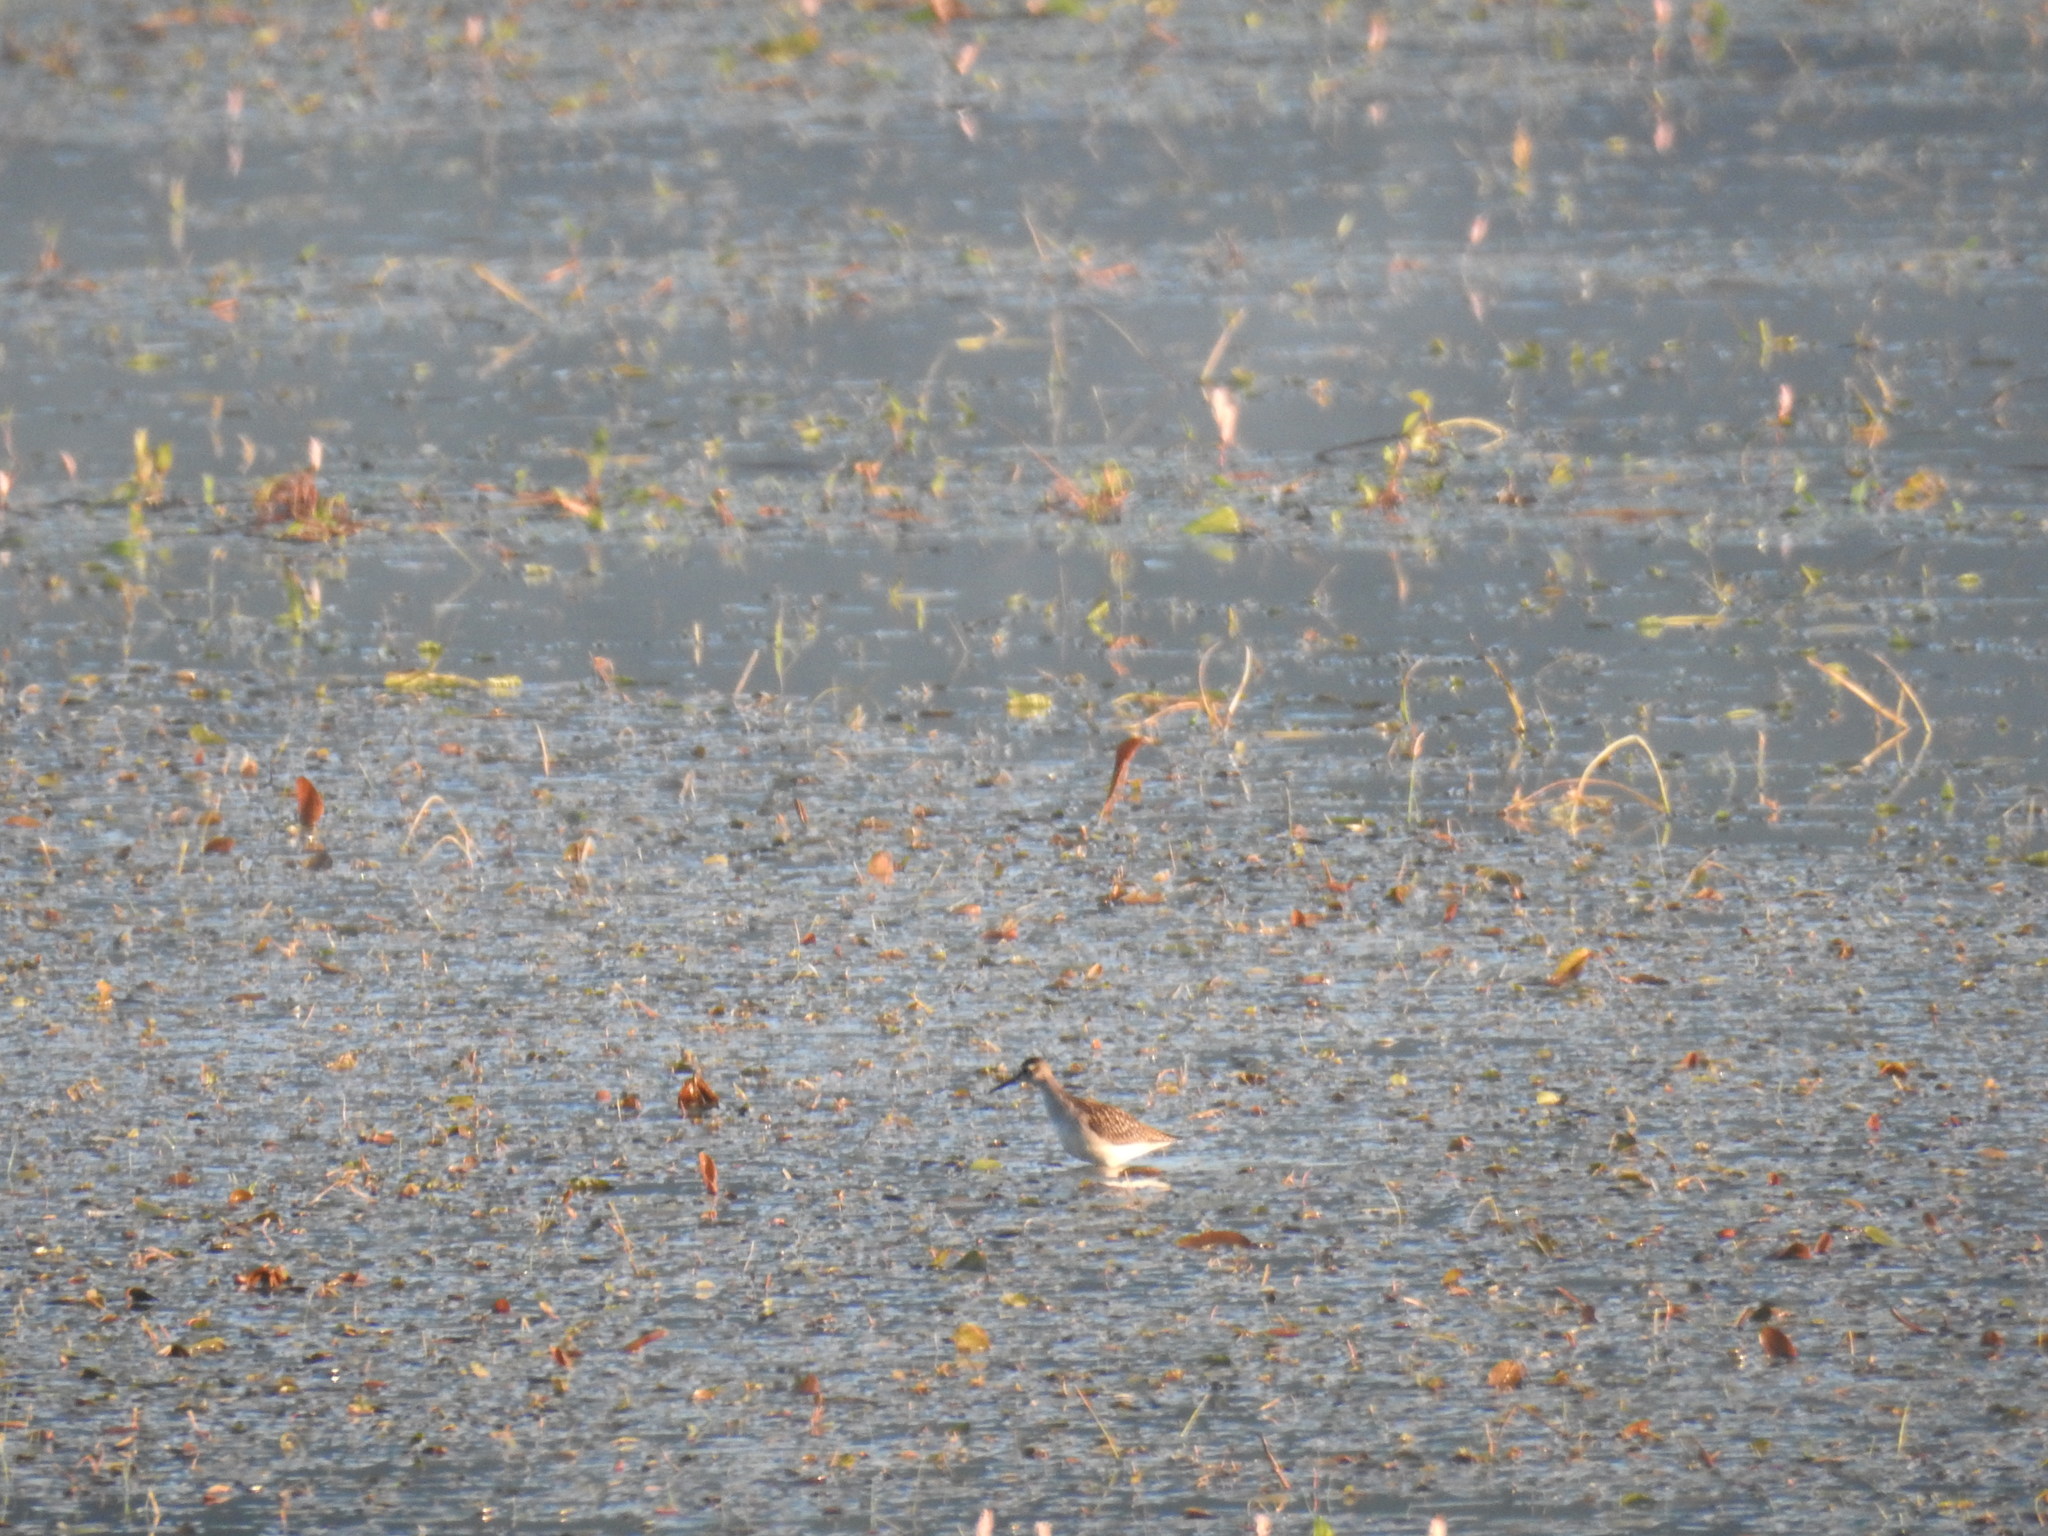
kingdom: Animalia
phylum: Chordata
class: Aves
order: Charadriiformes
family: Scolopacidae
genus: Tringa
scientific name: Tringa glareola
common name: Wood sandpiper
